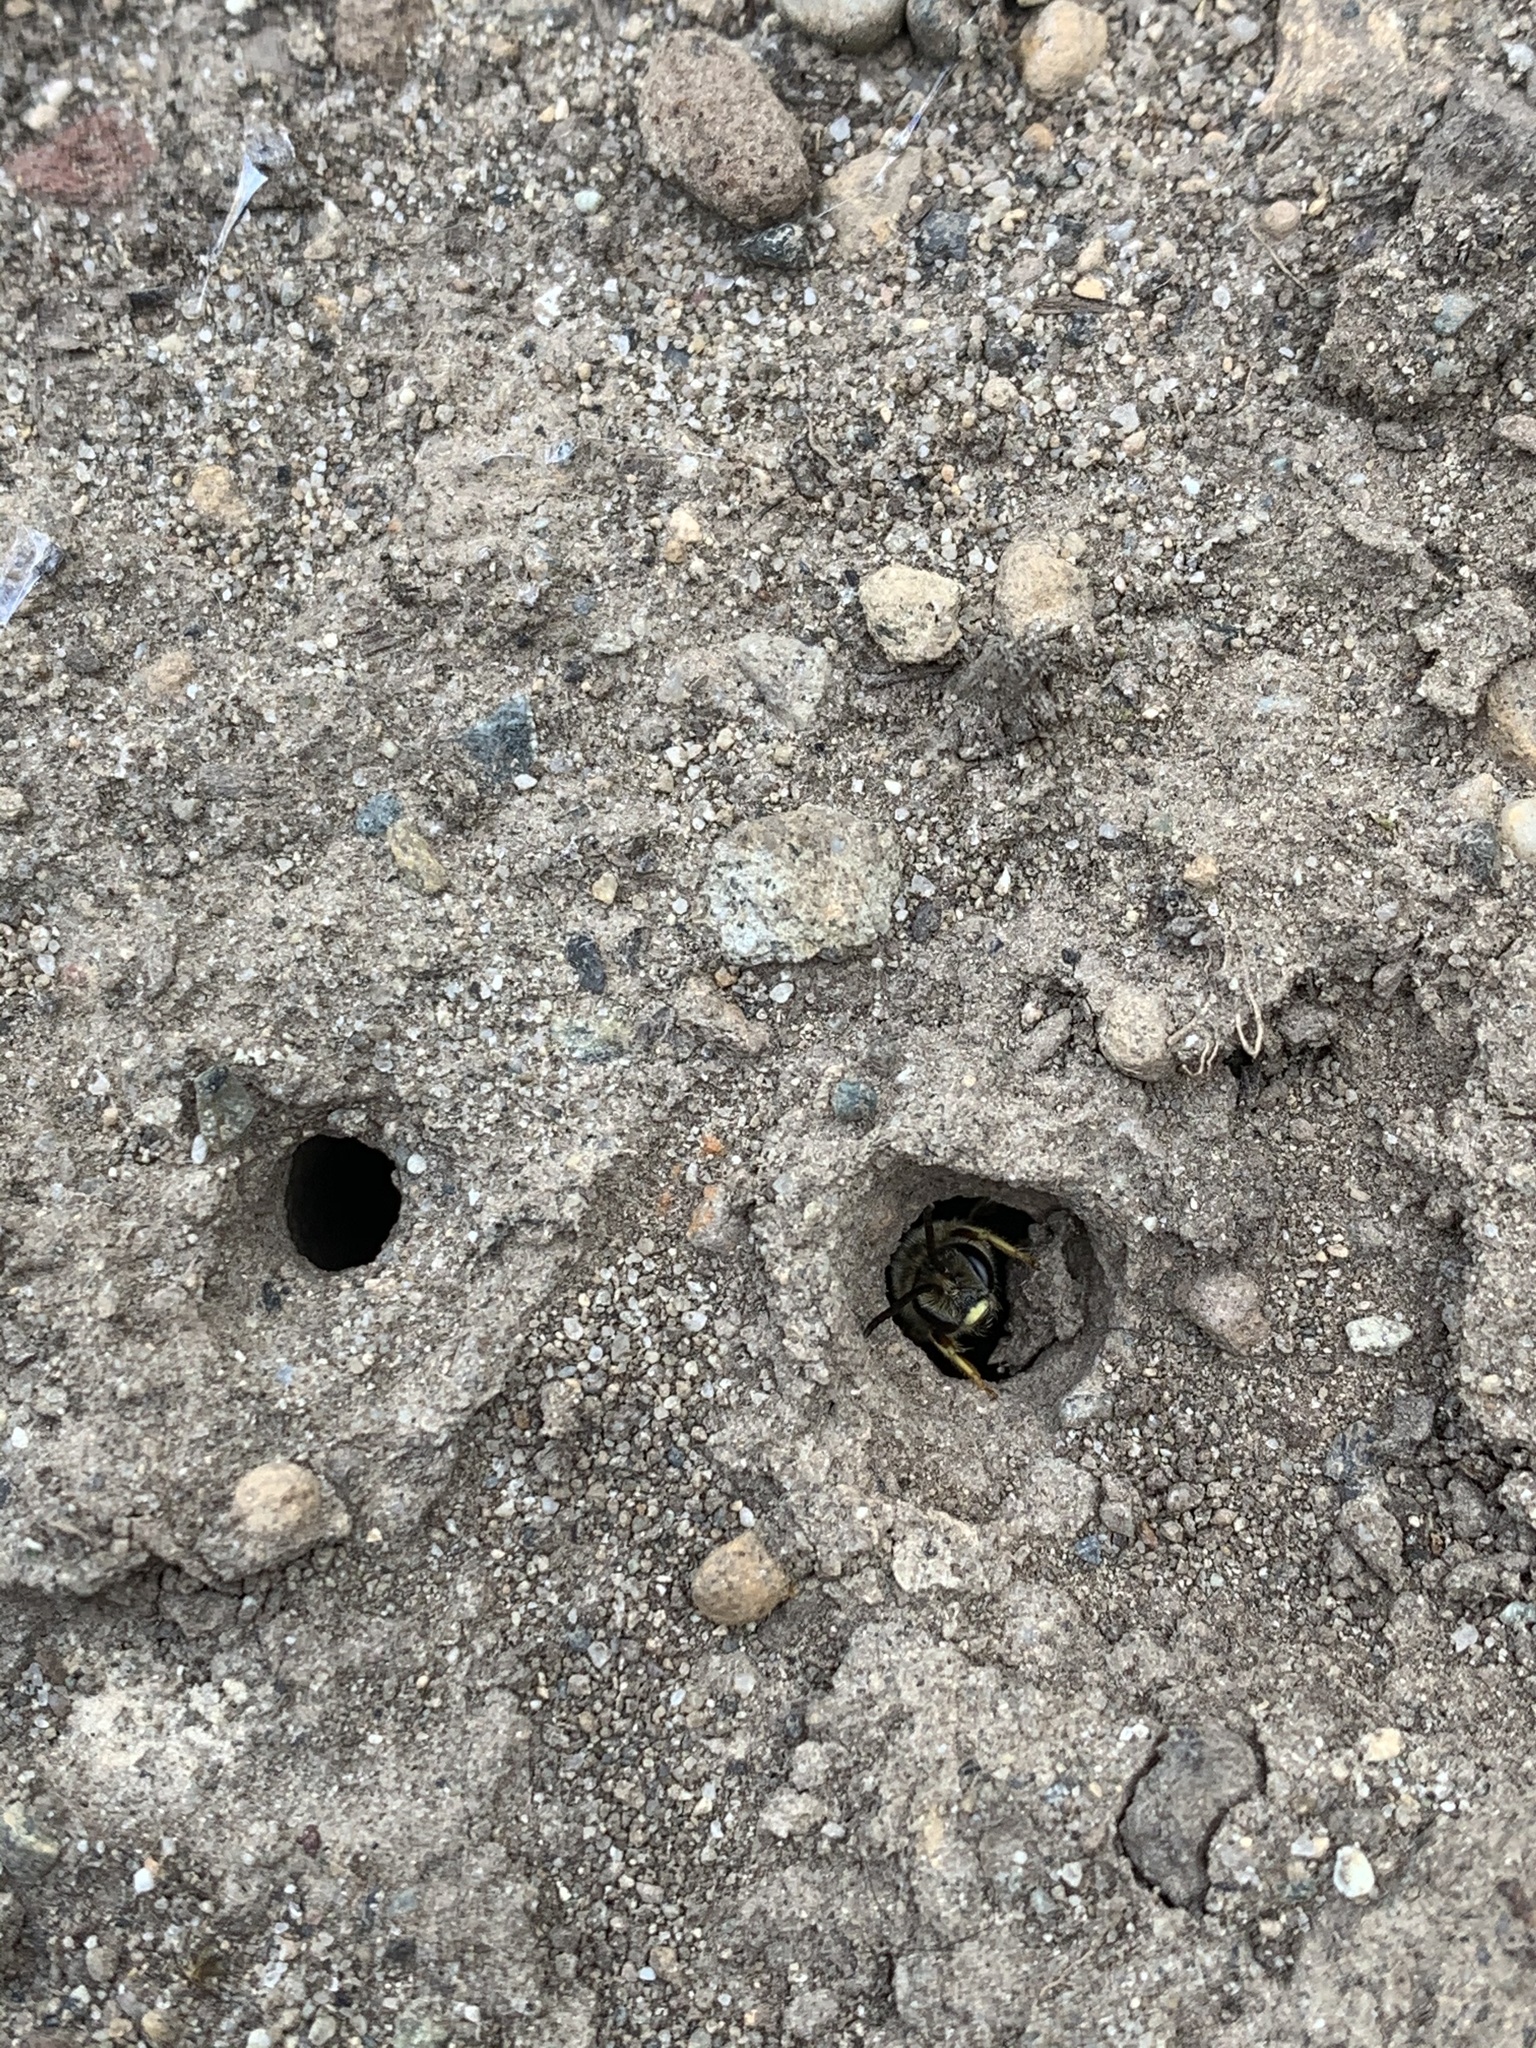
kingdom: Animalia
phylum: Arthropoda
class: Insecta
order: Hymenoptera
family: Halictidae
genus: Halictus
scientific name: Halictus rubicundus
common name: Orange-legged furrow bee
